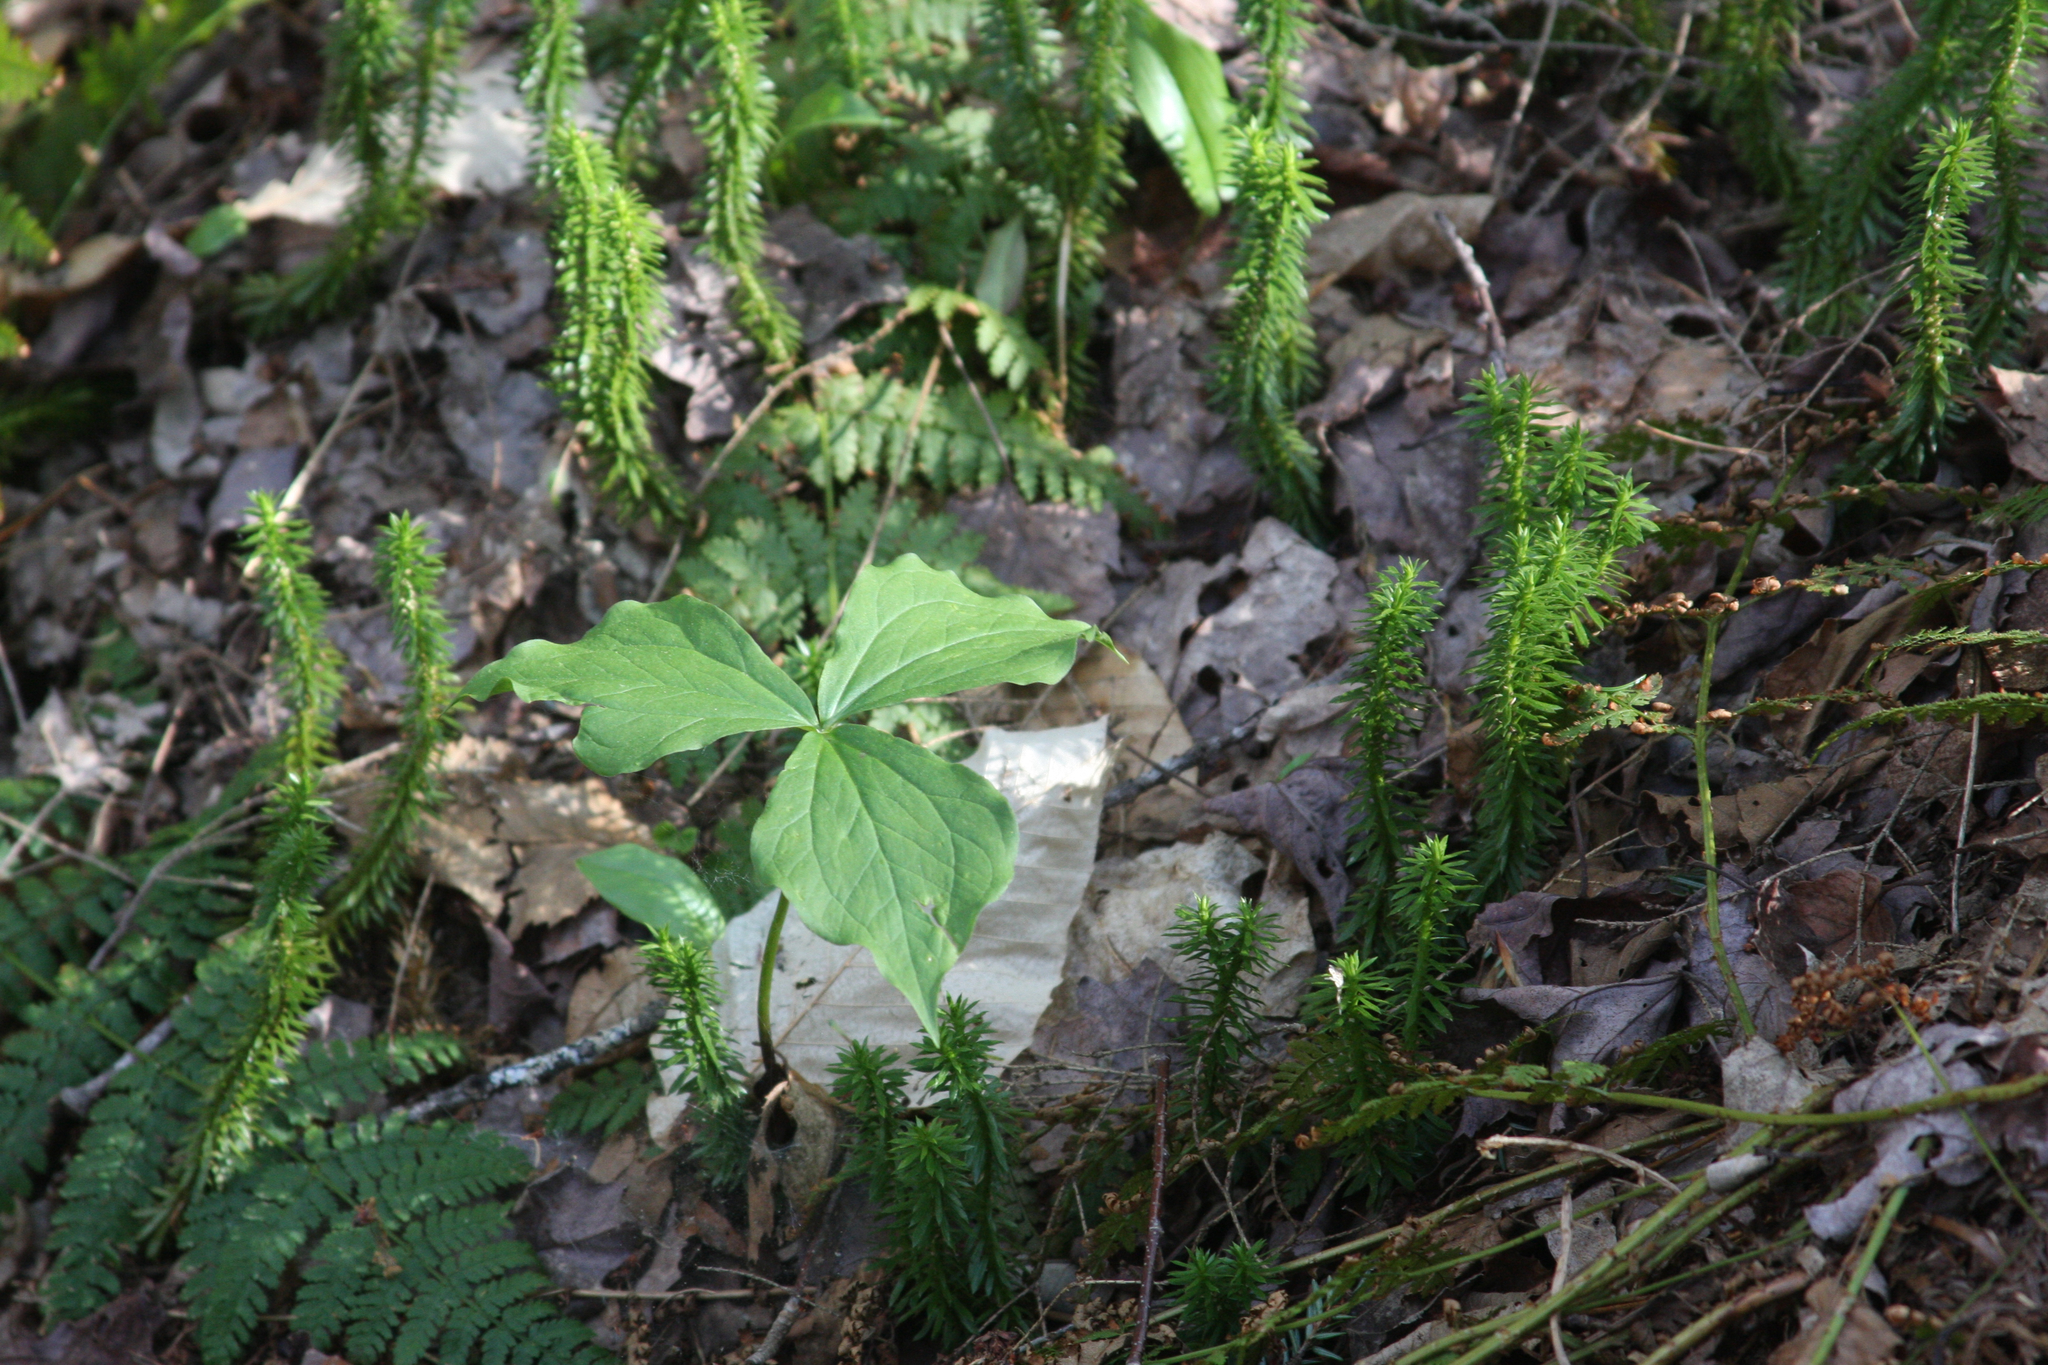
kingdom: Plantae
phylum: Tracheophyta
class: Lycopodiopsida
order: Lycopodiales
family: Lycopodiaceae
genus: Spinulum
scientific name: Spinulum annotinum
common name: Interrupted club-moss
